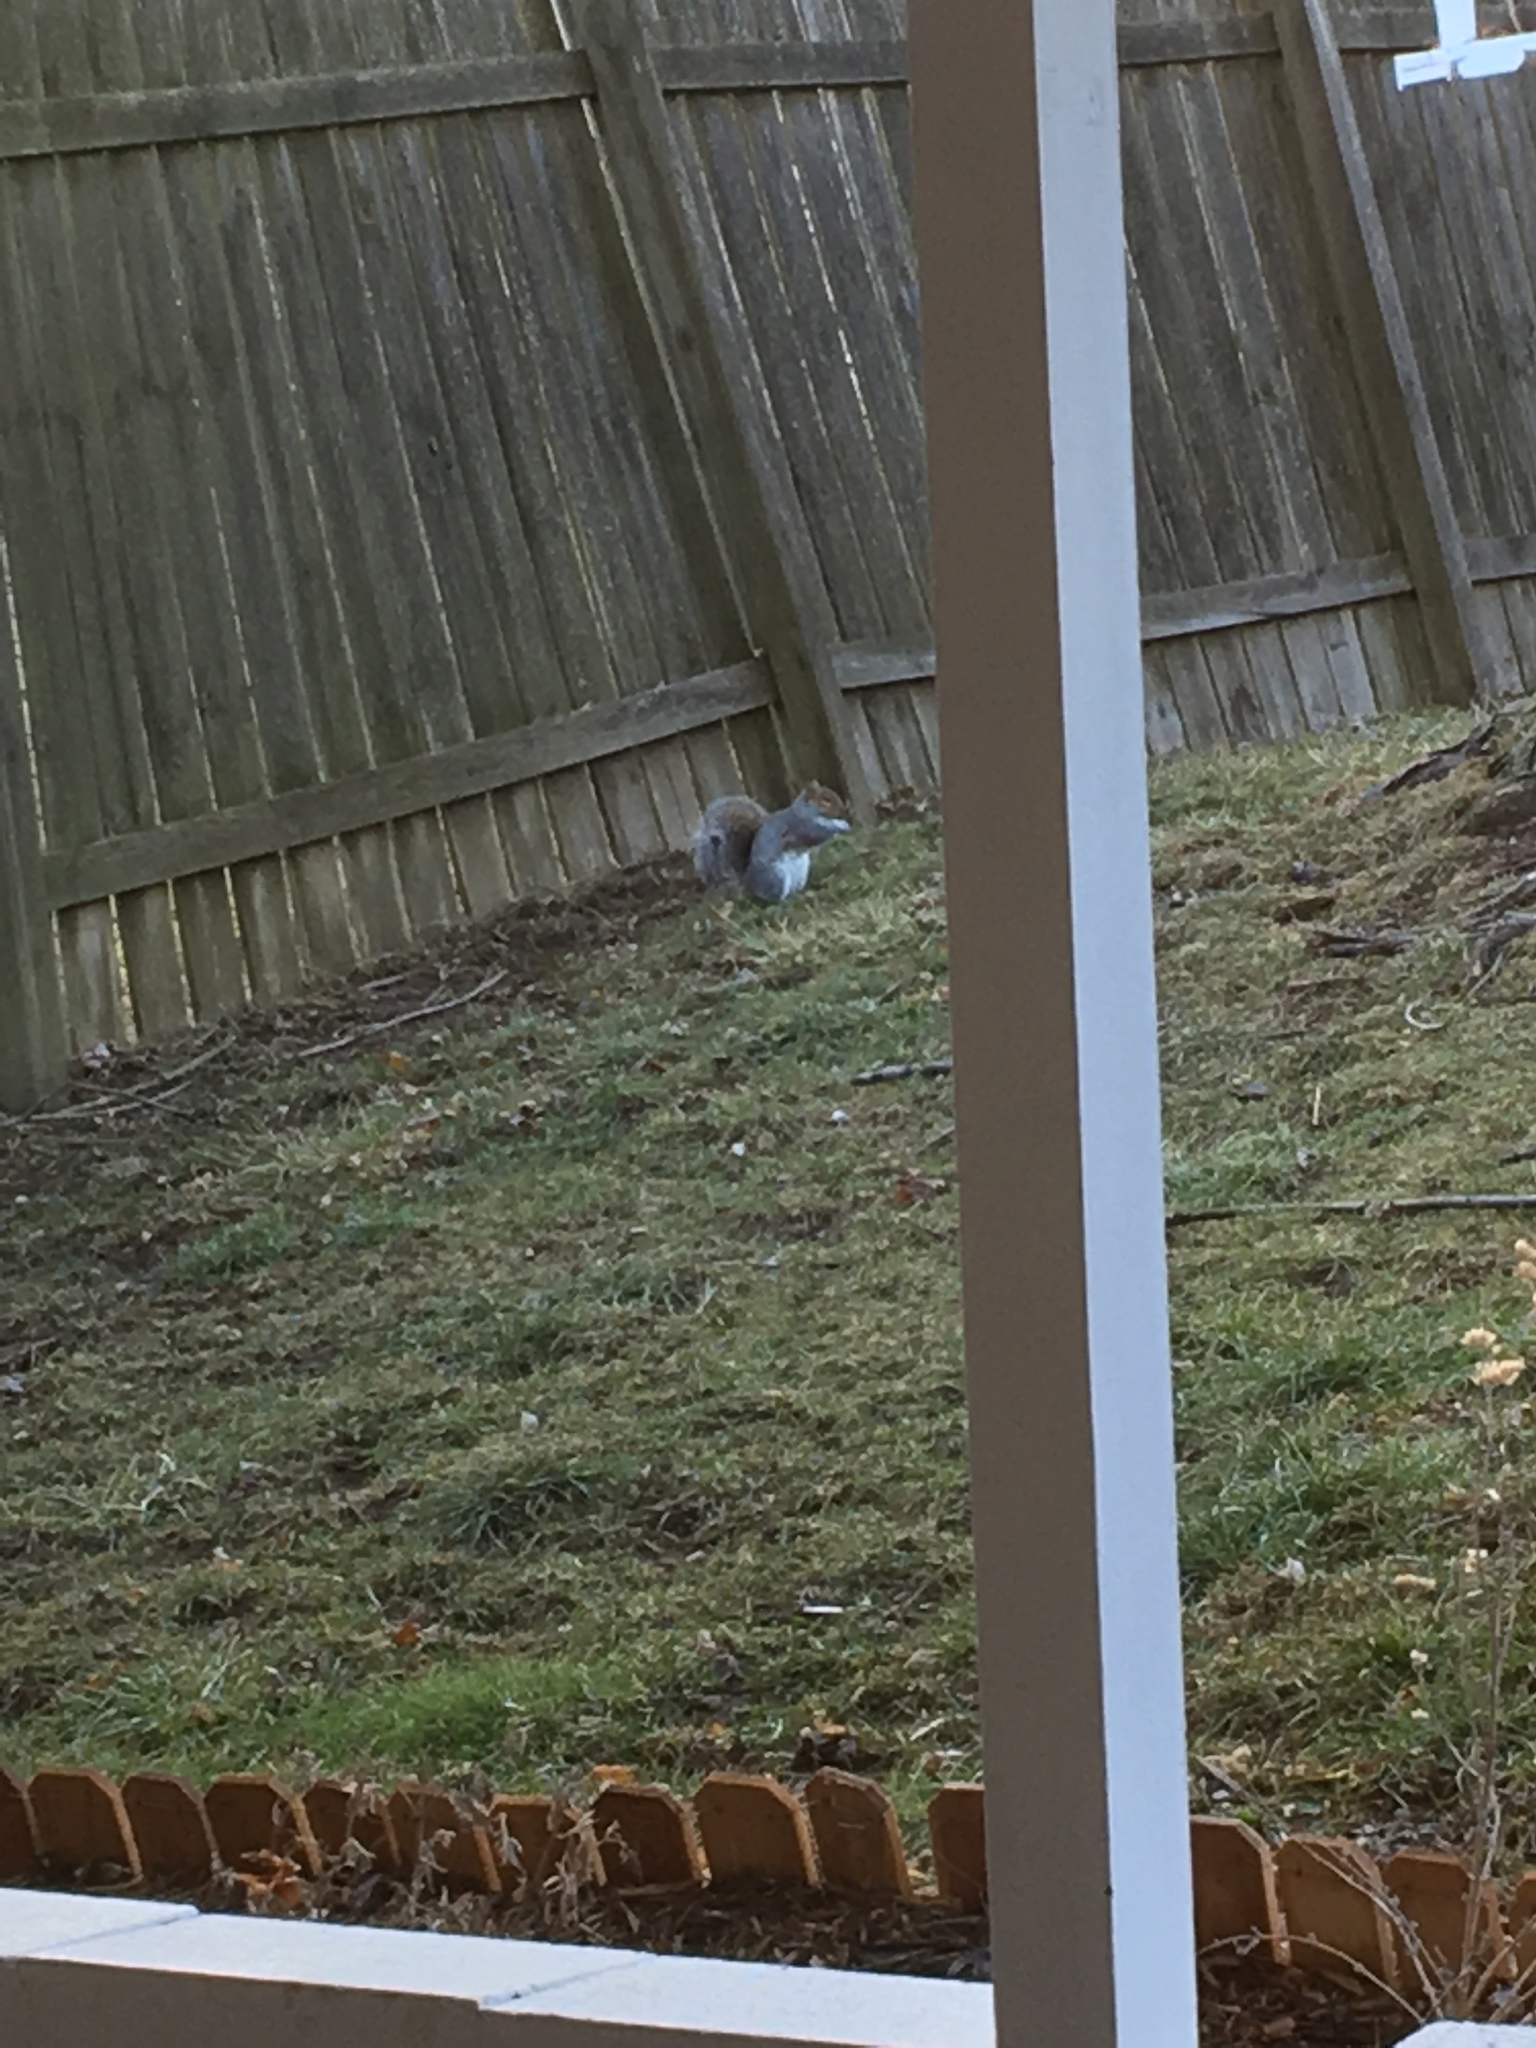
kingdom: Animalia
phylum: Chordata
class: Mammalia
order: Rodentia
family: Sciuridae
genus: Sciurus
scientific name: Sciurus carolinensis
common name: Eastern gray squirrel
